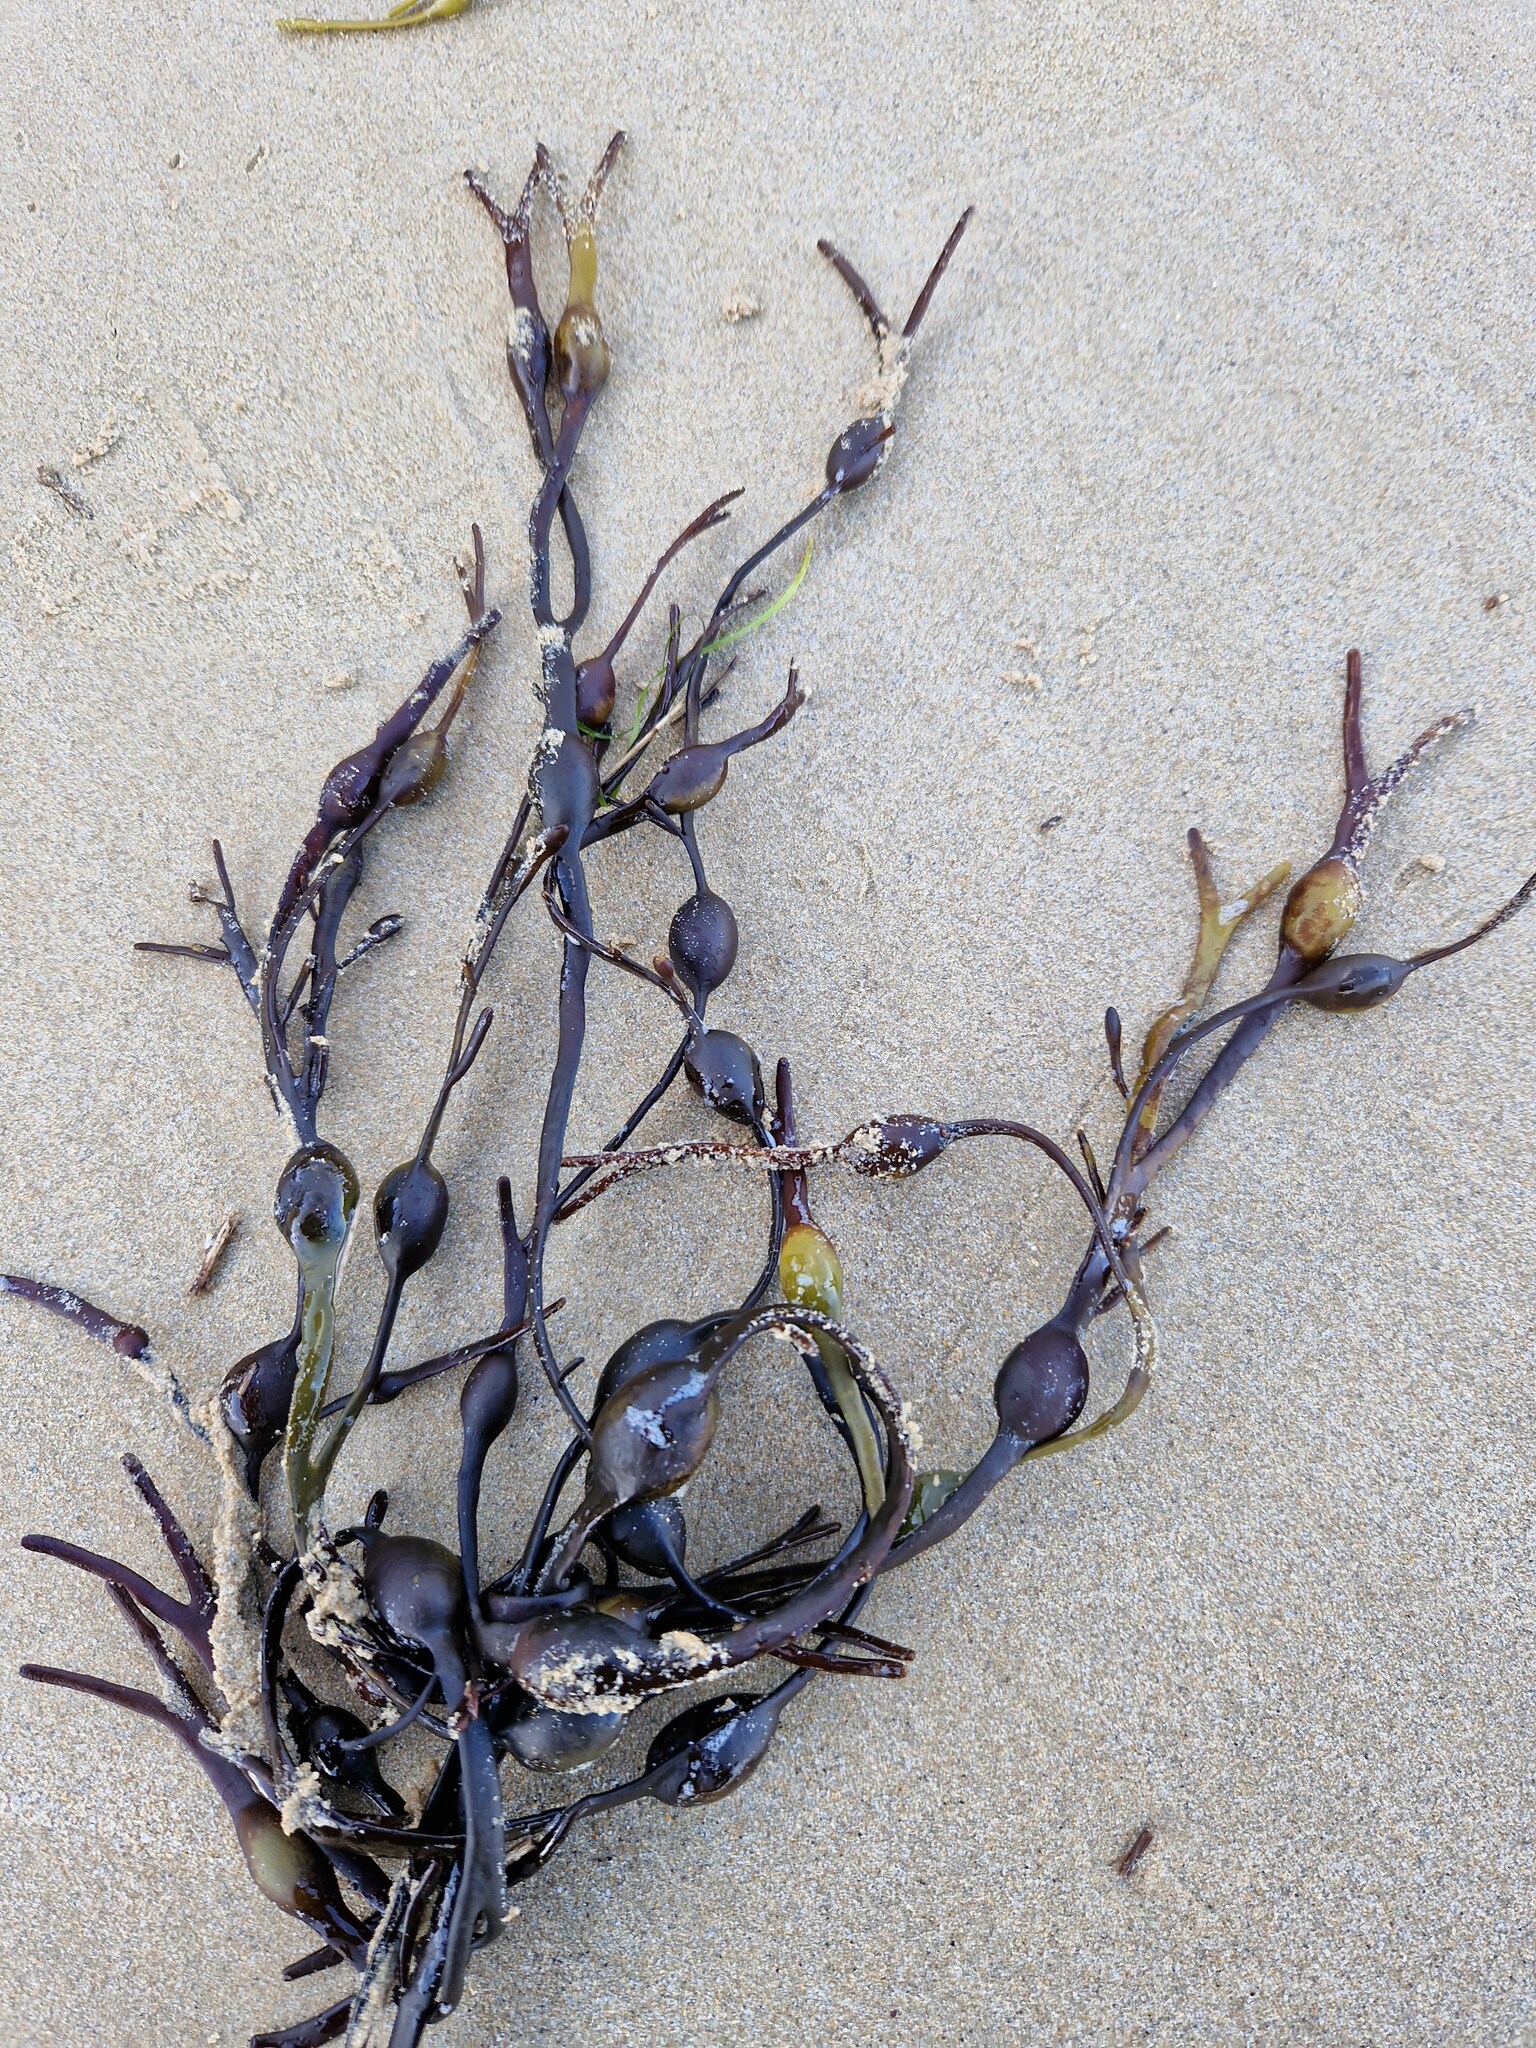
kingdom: Chromista
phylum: Ochrophyta
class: Phaeophyceae
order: Fucales
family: Fucaceae
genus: Ascophyllum
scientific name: Ascophyllum nodosum
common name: Knotted wrack
